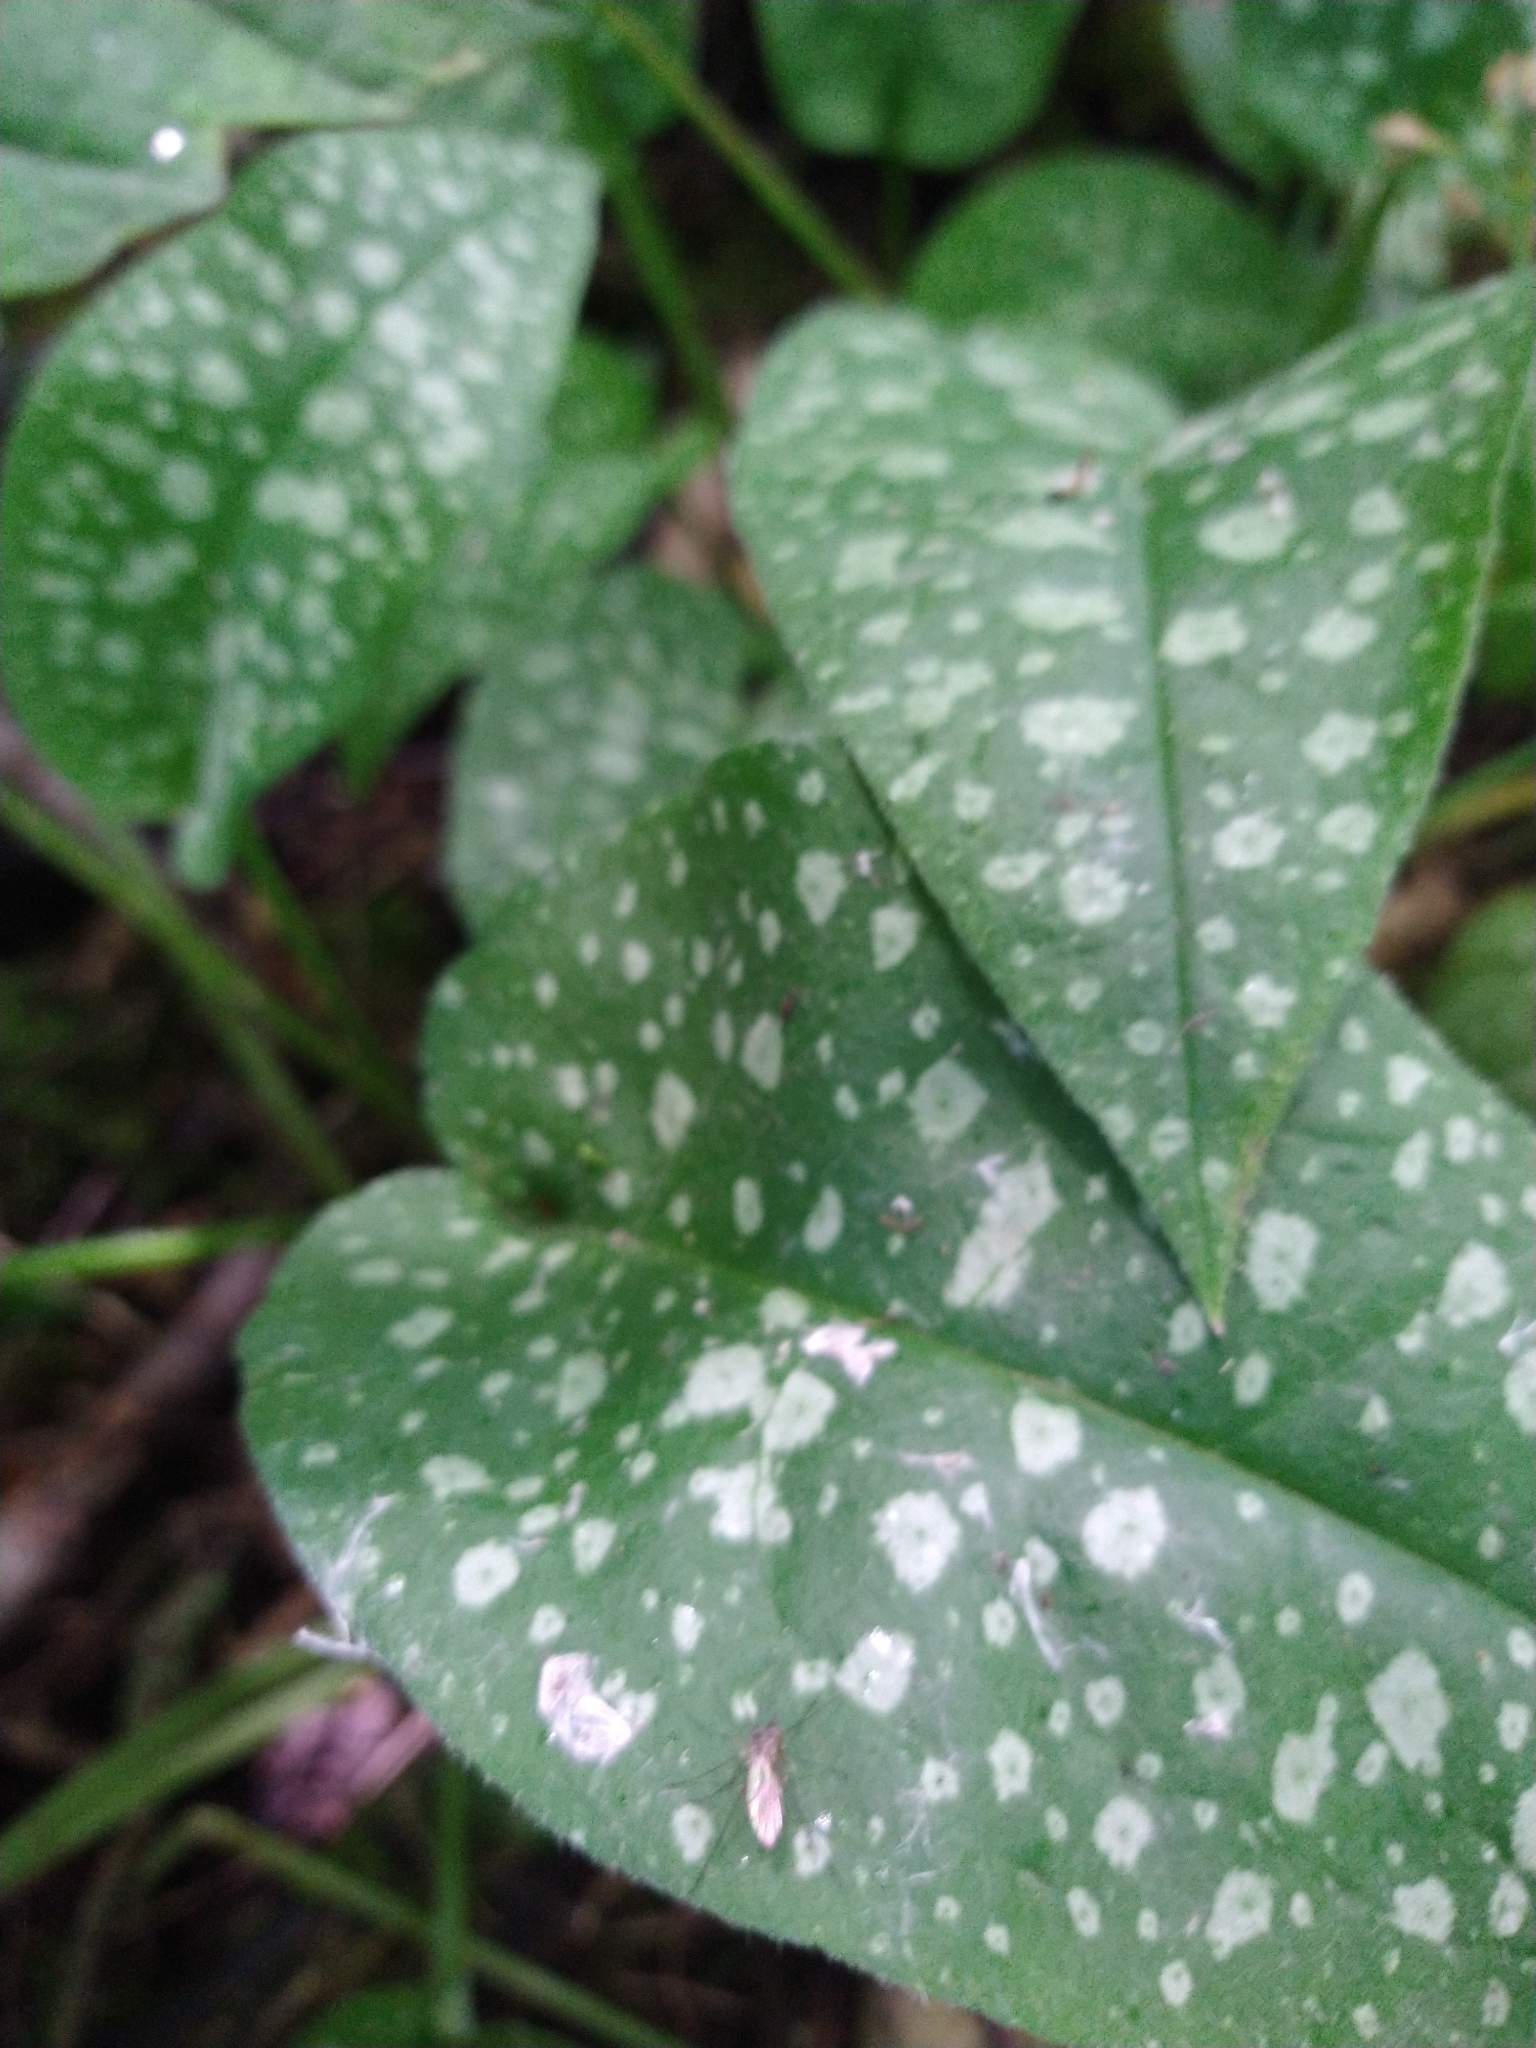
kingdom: Plantae
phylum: Tracheophyta
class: Magnoliopsida
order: Boraginales
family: Boraginaceae
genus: Pulmonaria
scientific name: Pulmonaria officinalis
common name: Lungwort
